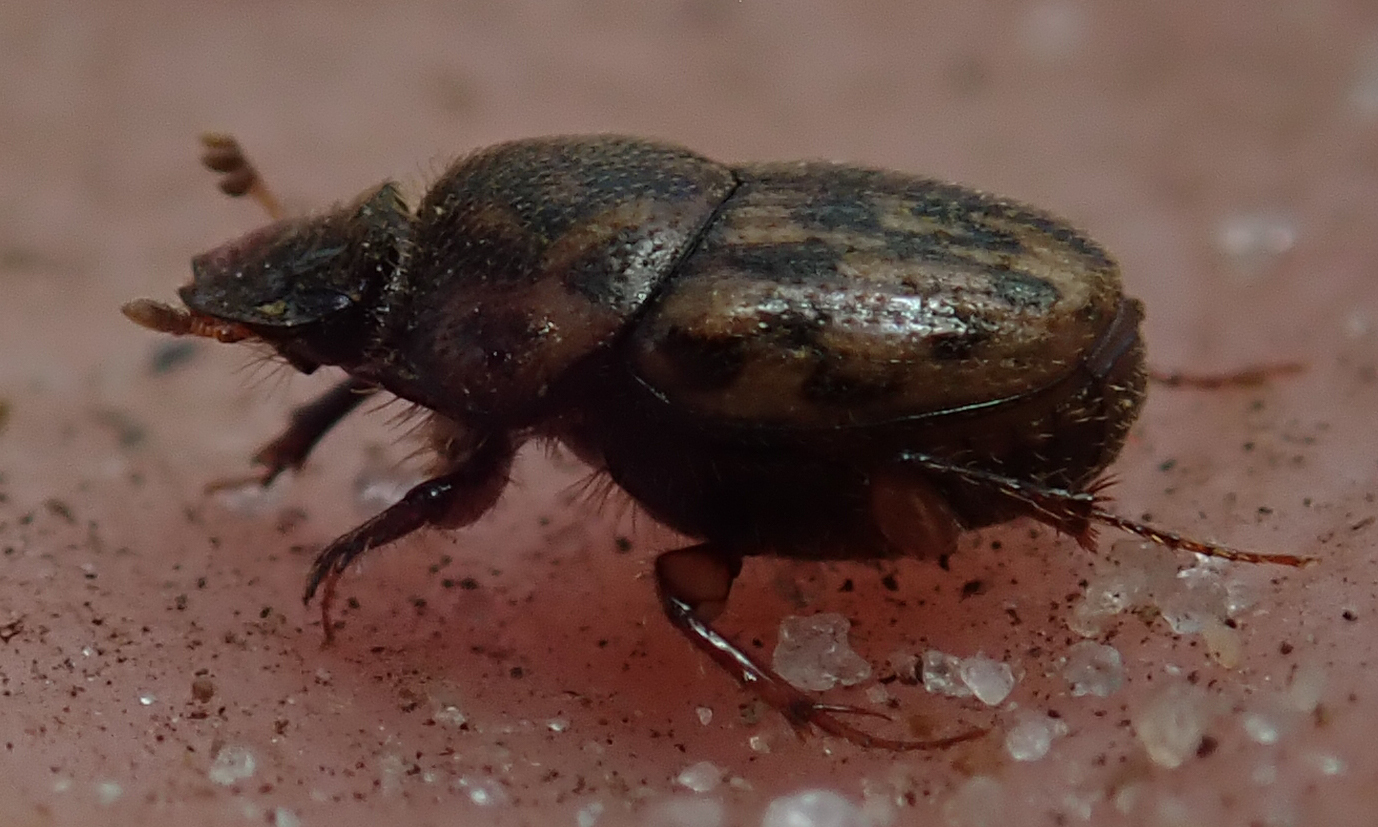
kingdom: Animalia
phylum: Arthropoda
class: Insecta
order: Coleoptera
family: Scarabaeidae
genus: Onthophagus
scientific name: Onthophagus variegatus
